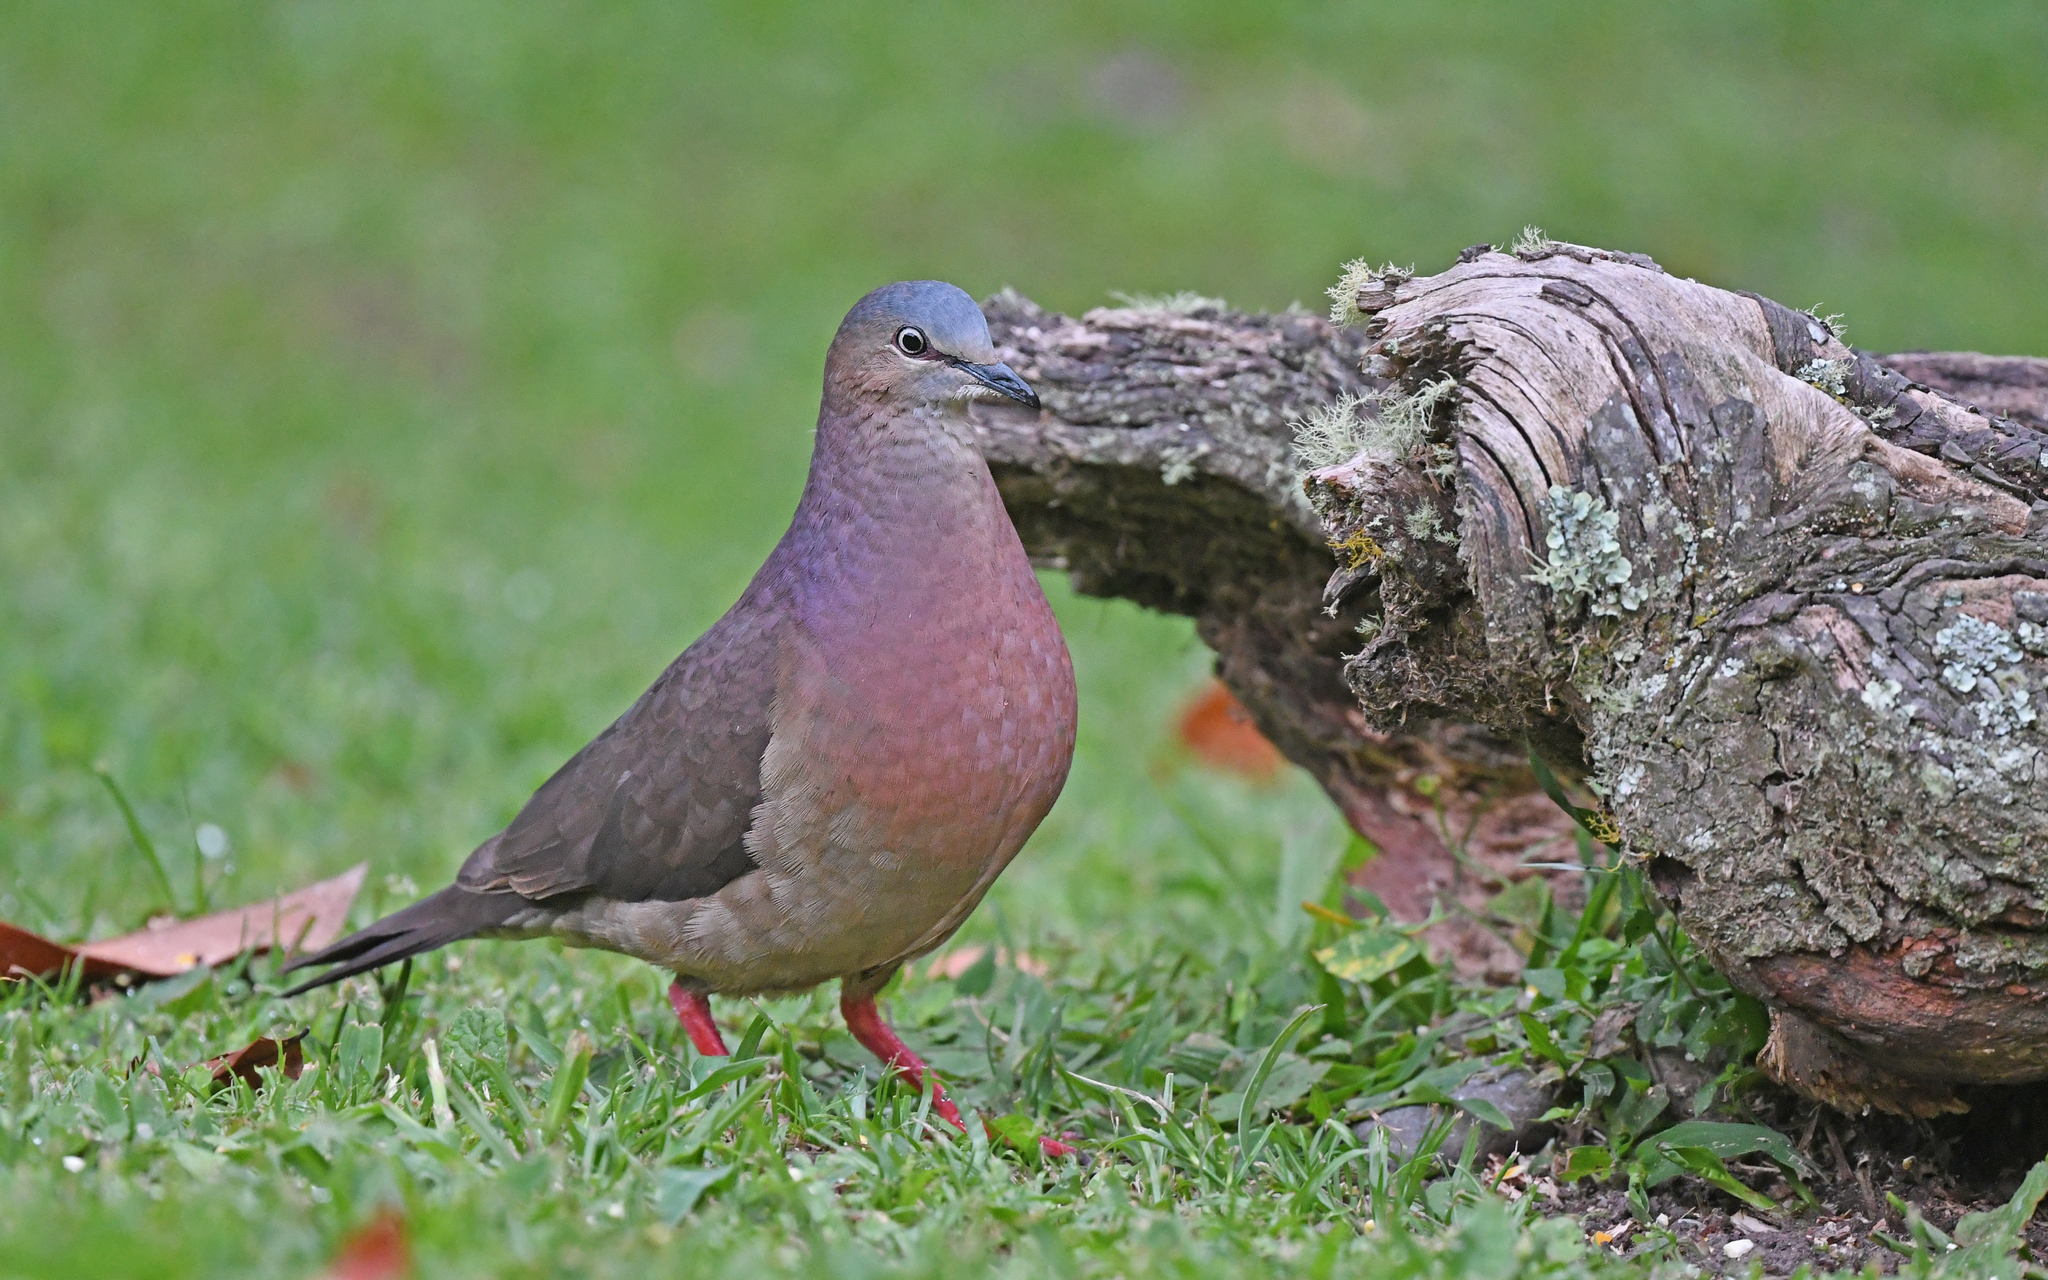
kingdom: Animalia
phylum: Chordata
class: Aves
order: Columbiformes
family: Columbidae
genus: Leptotila
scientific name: Leptotila conoveri
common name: Tolima dove
